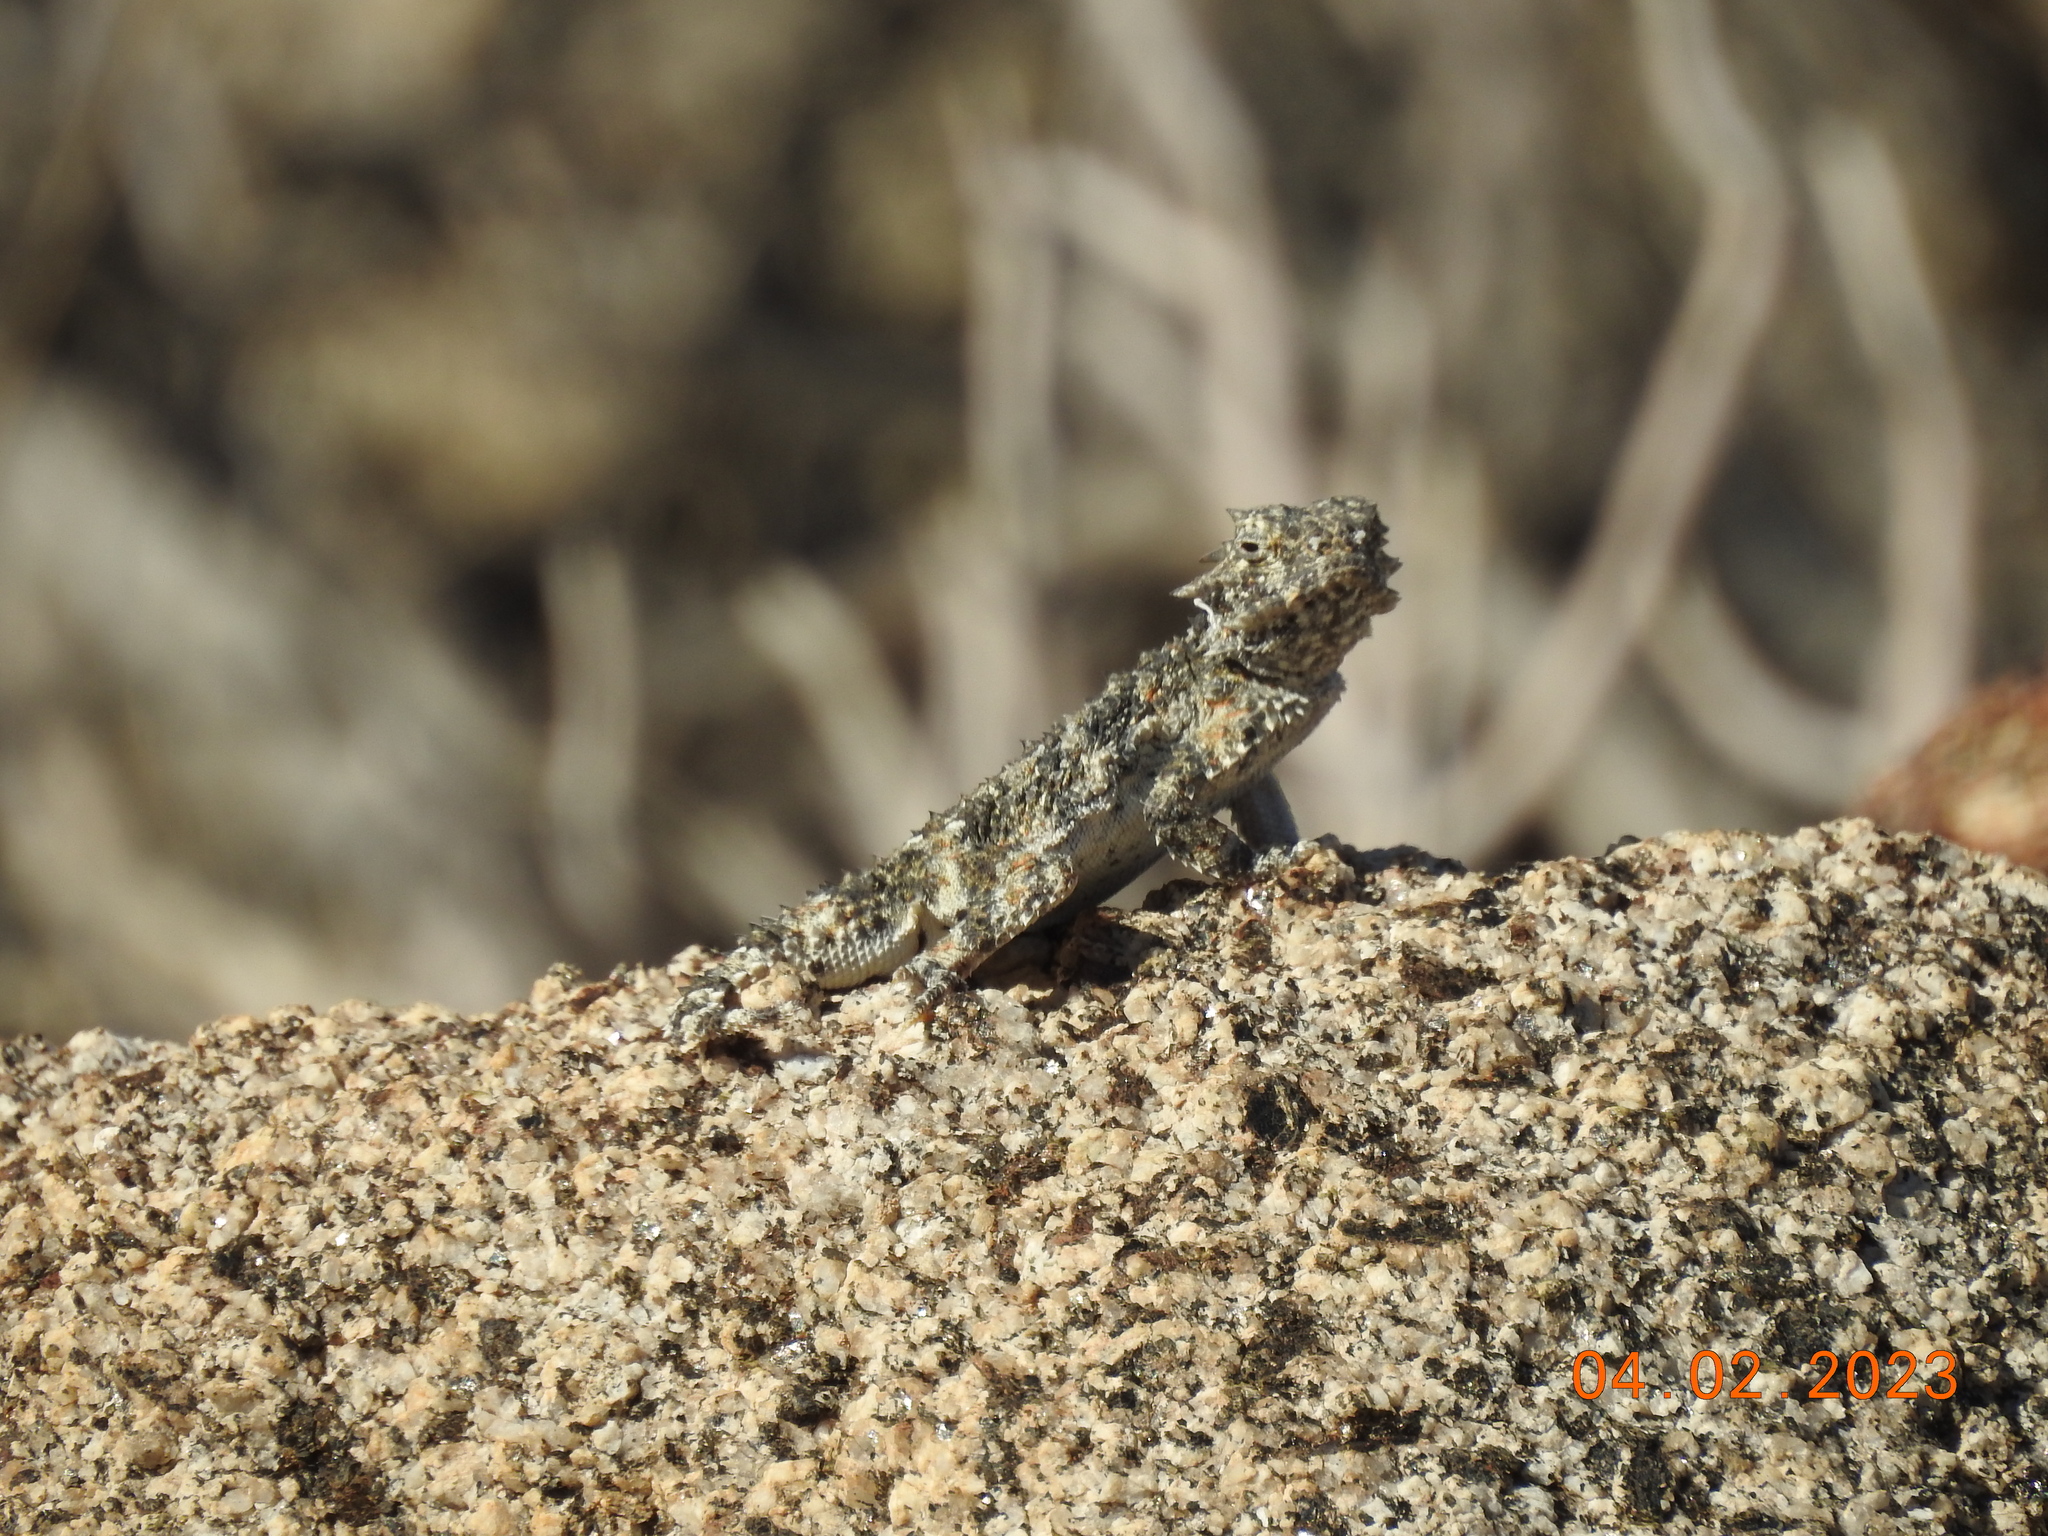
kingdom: Animalia
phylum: Chordata
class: Squamata
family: Phrynosomatidae
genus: Phrynosoma
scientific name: Phrynosoma platyrhinos
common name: Desert horned lizard
